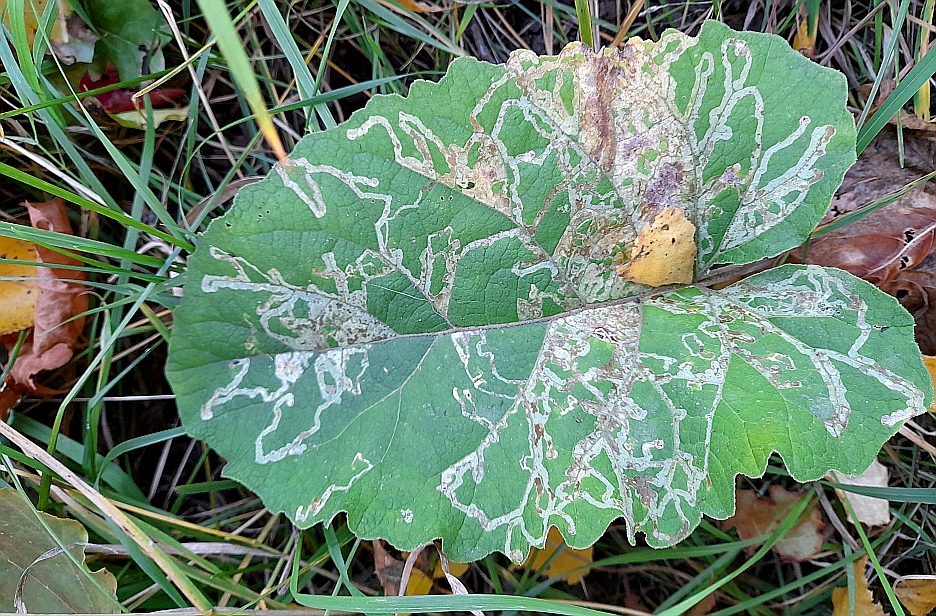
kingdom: Plantae
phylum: Tracheophyta
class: Magnoliopsida
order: Asterales
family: Asteraceae
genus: Arctium
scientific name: Arctium
